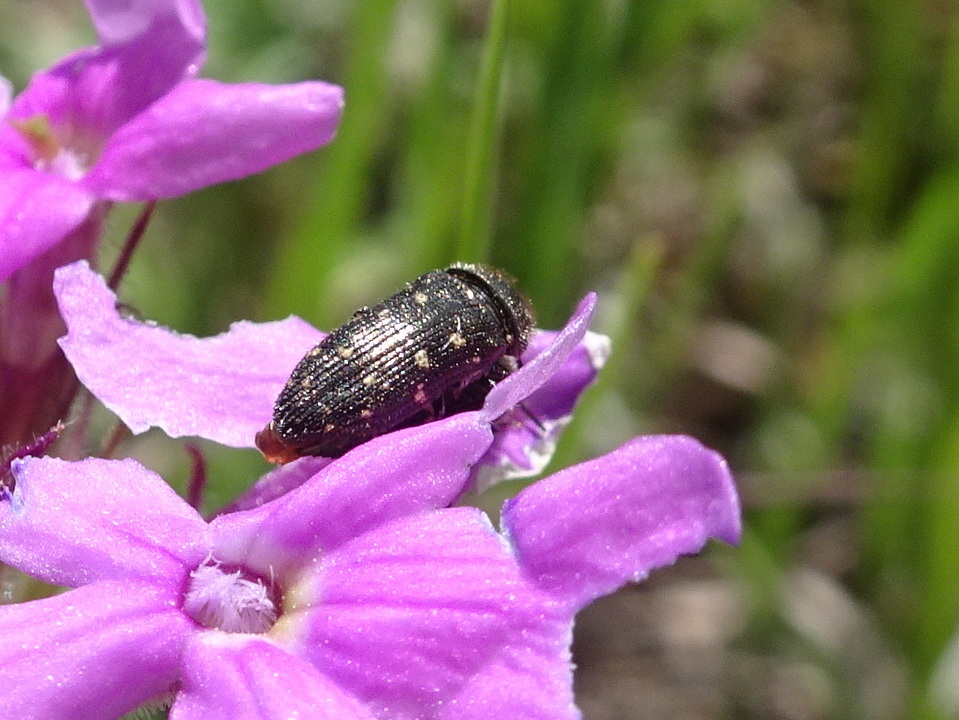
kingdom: Animalia
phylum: Arthropoda
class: Insecta
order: Coleoptera
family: Buprestidae
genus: Acmaeodera
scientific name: Acmaeodera tubulus
